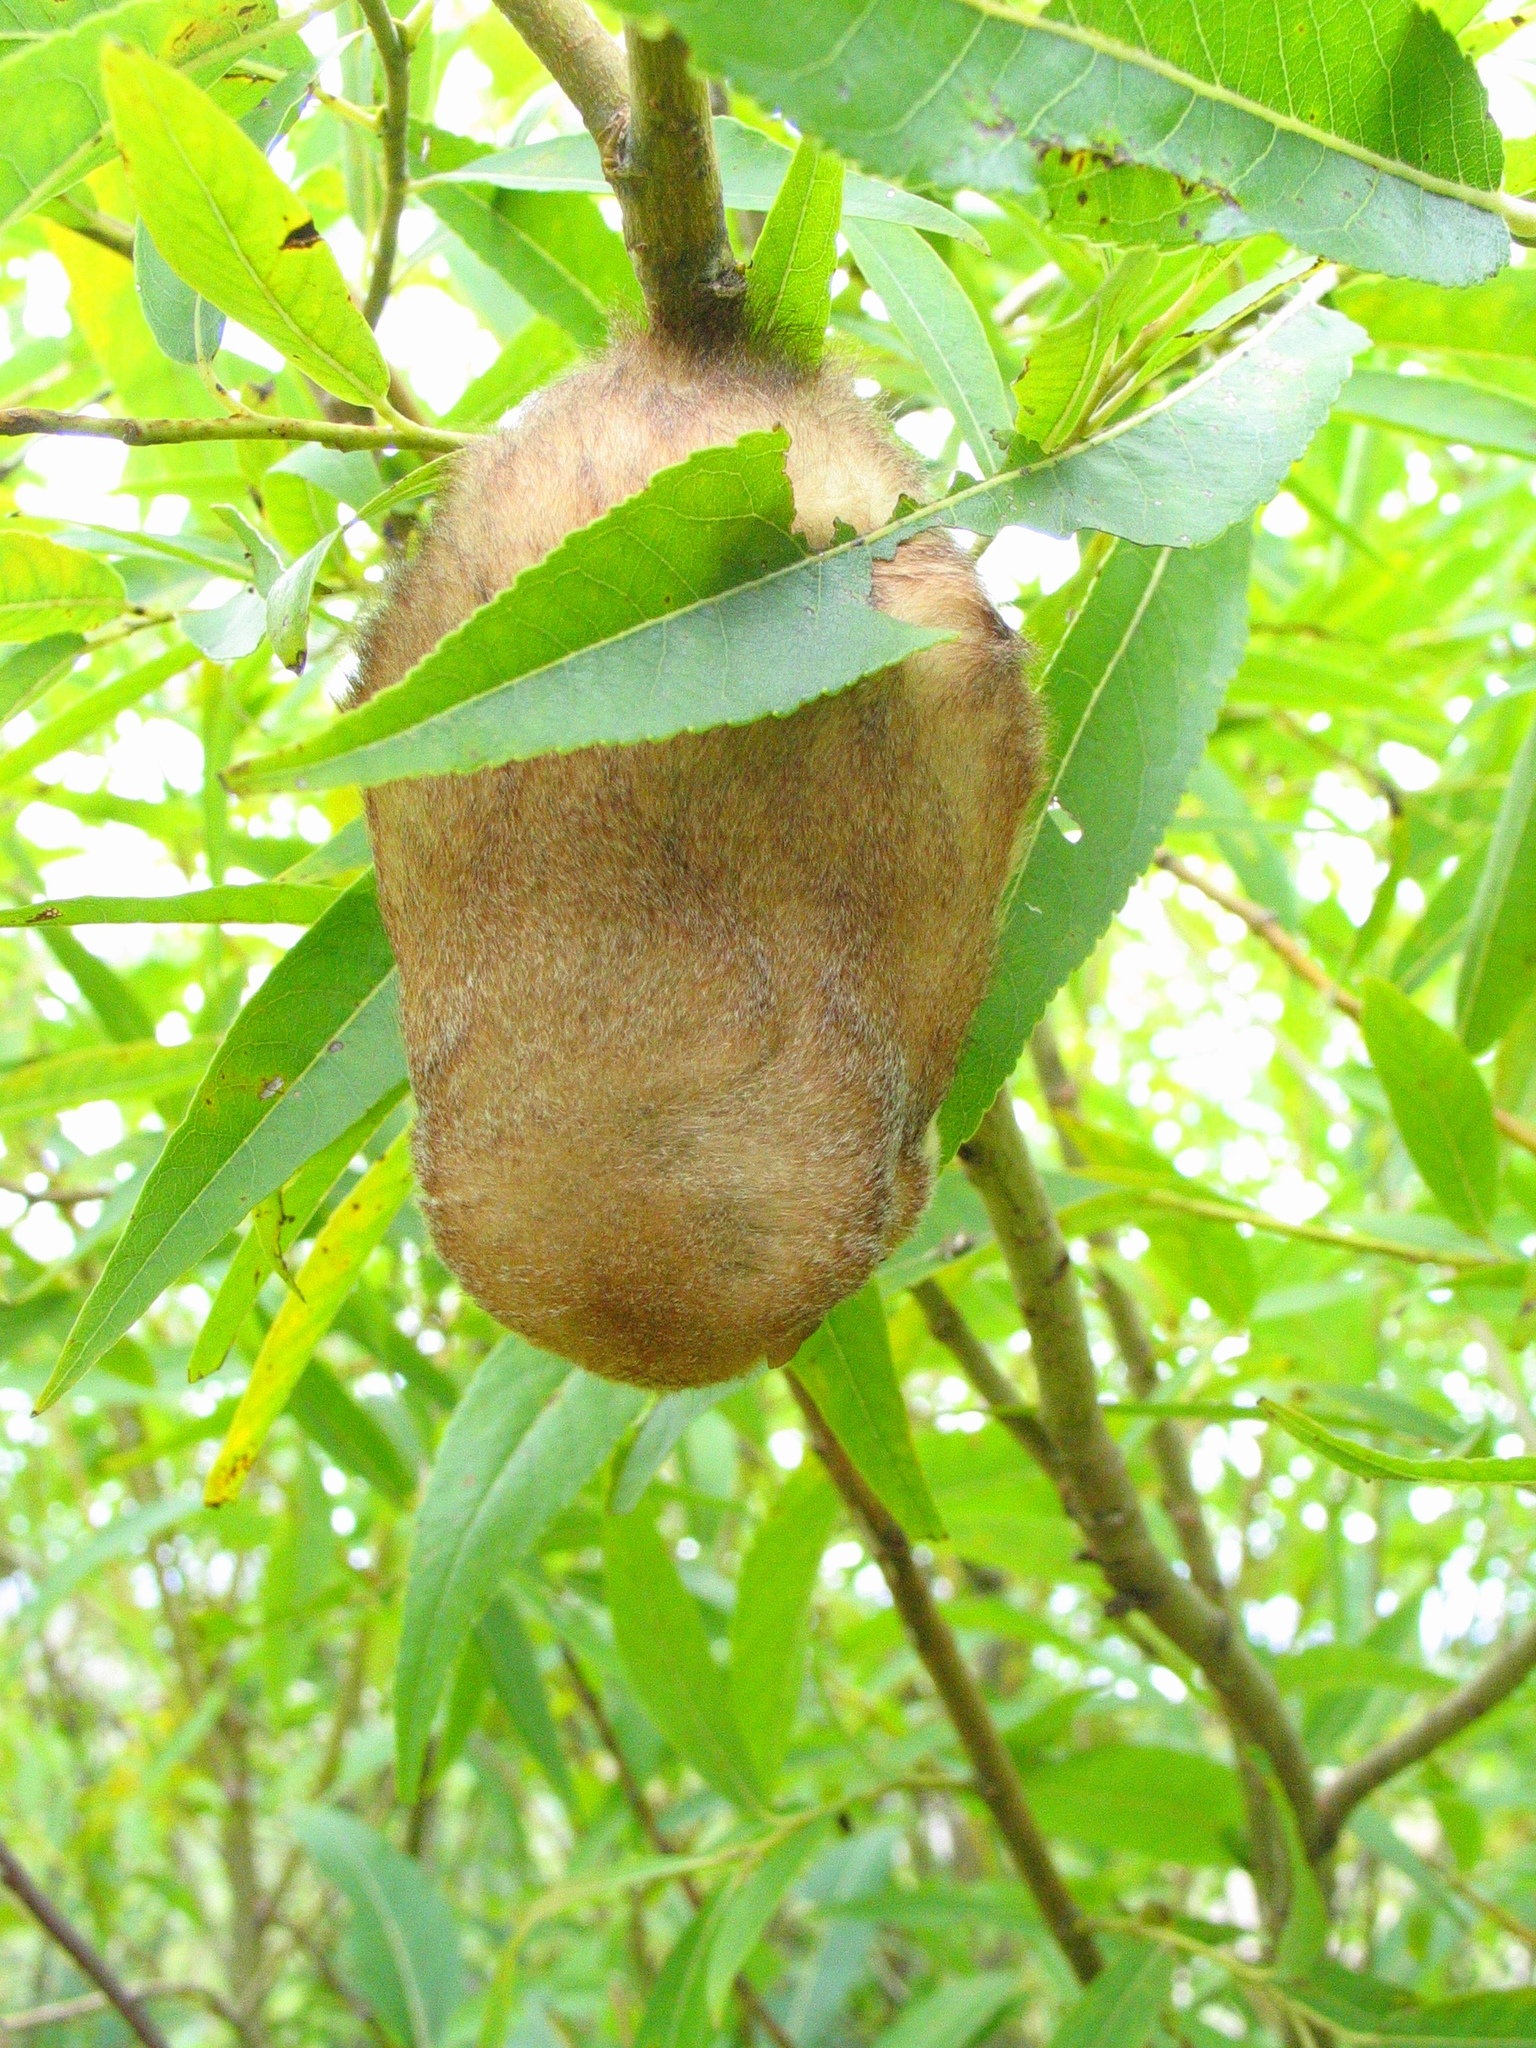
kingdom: Animalia
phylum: Chordata
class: Mammalia
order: Chiroptera
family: Vespertilionidae
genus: Lasiurus
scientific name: Lasiurus borealis
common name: Eastern red bat
